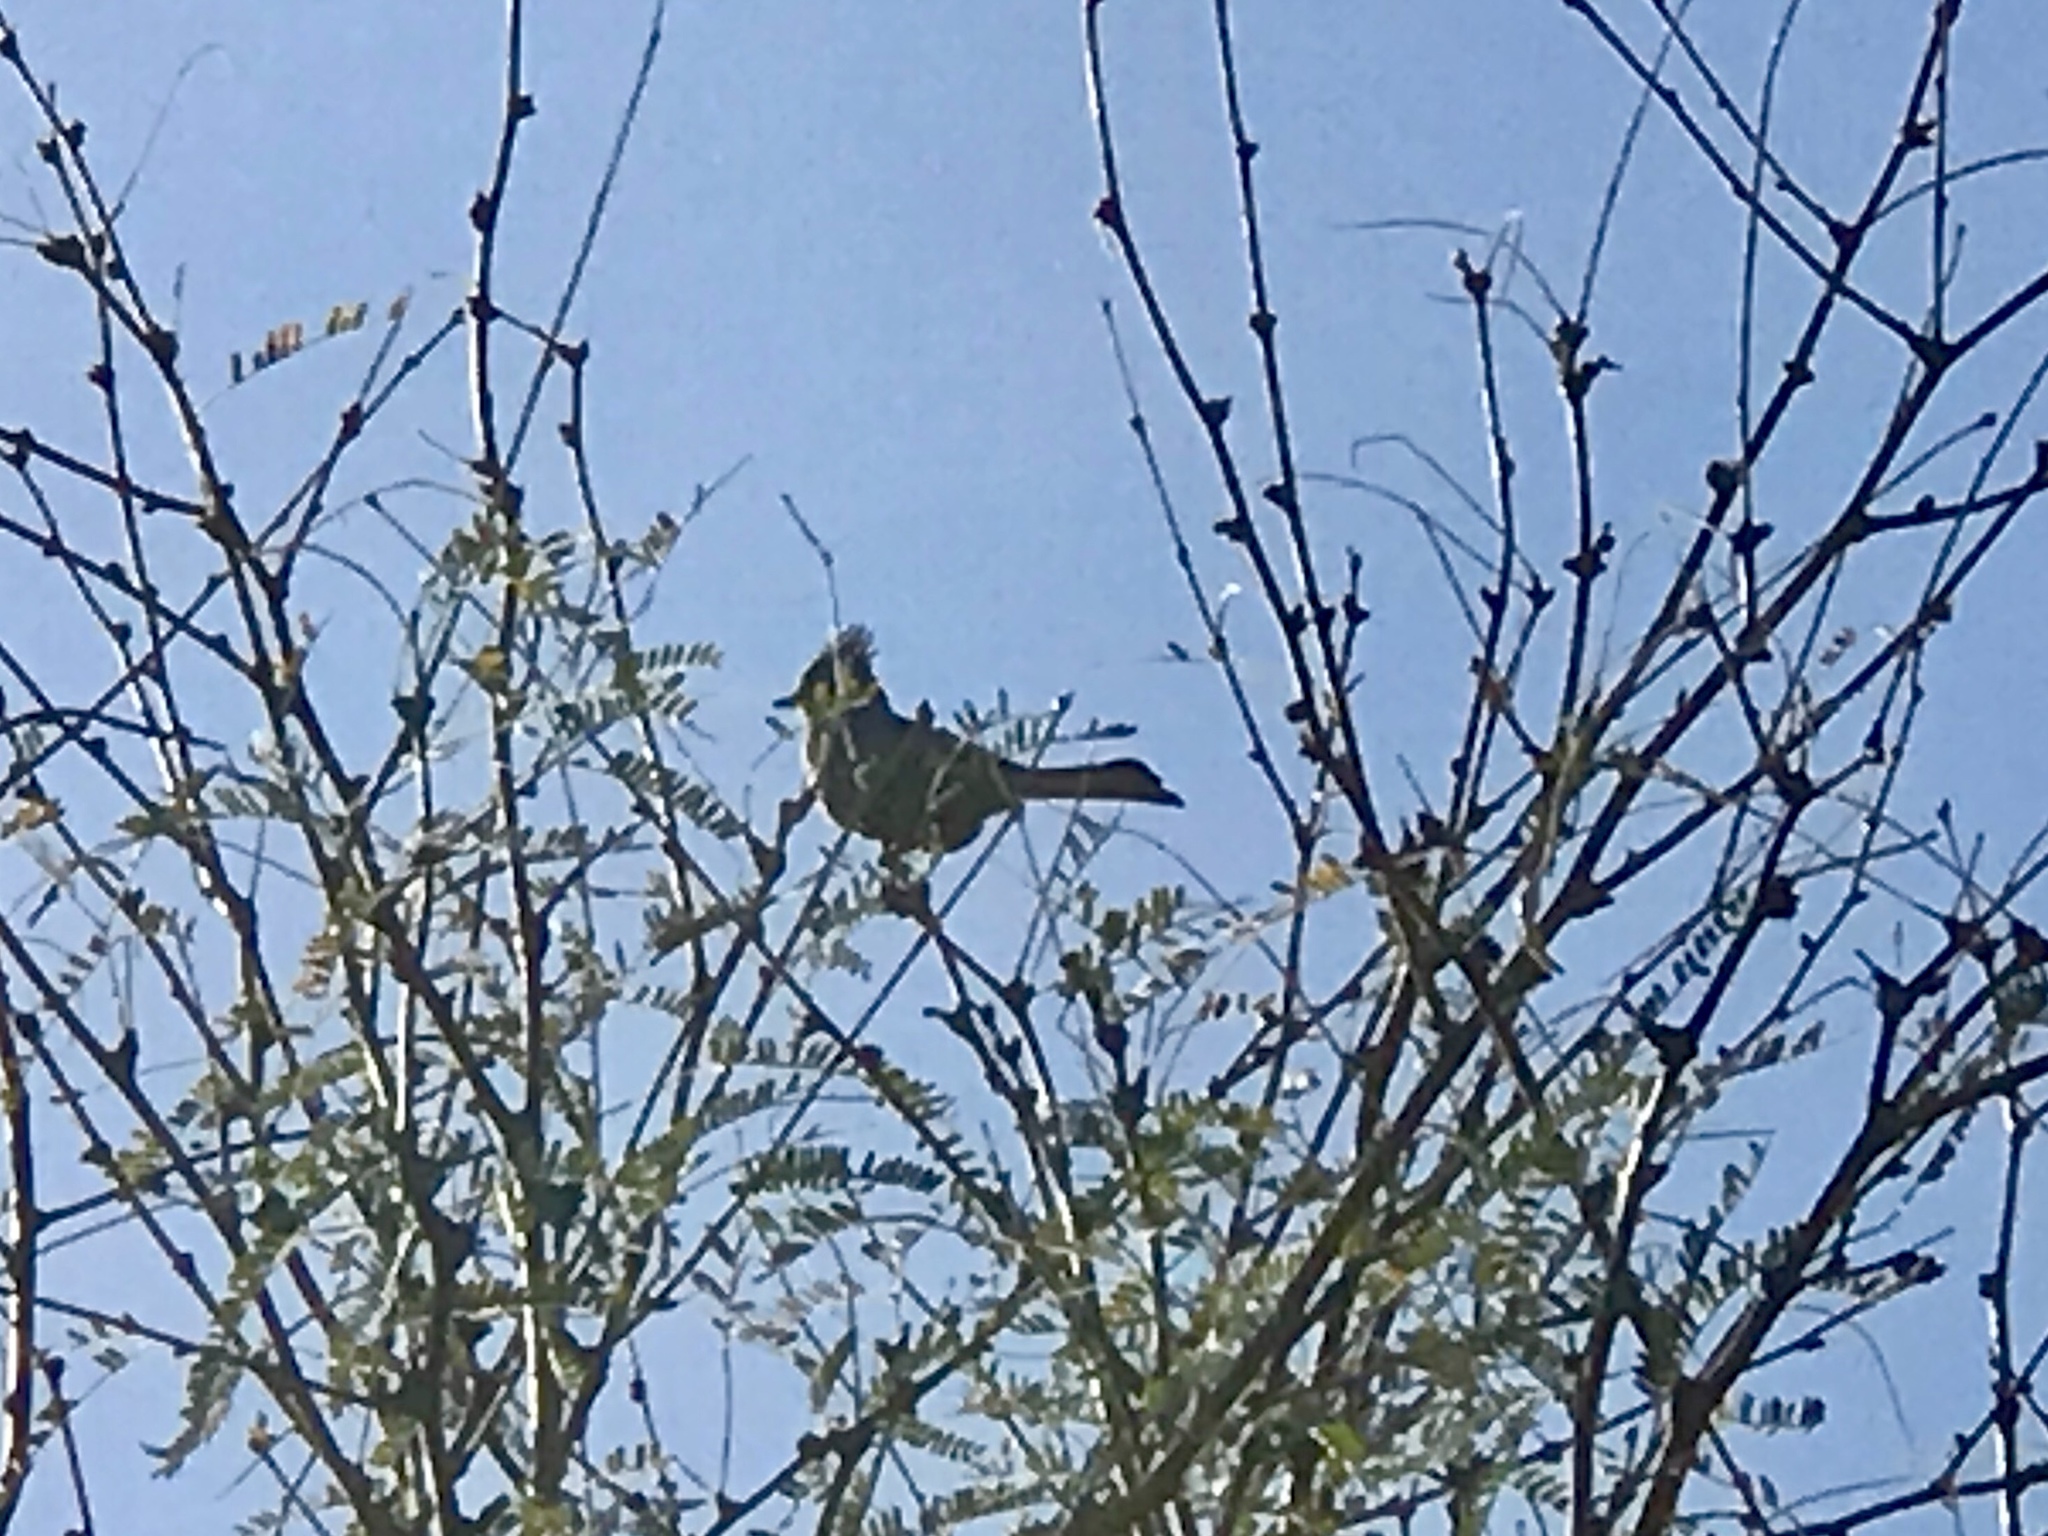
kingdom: Animalia
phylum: Chordata
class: Aves
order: Passeriformes
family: Ptilogonatidae
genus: Phainopepla
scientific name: Phainopepla nitens
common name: Phainopepla
